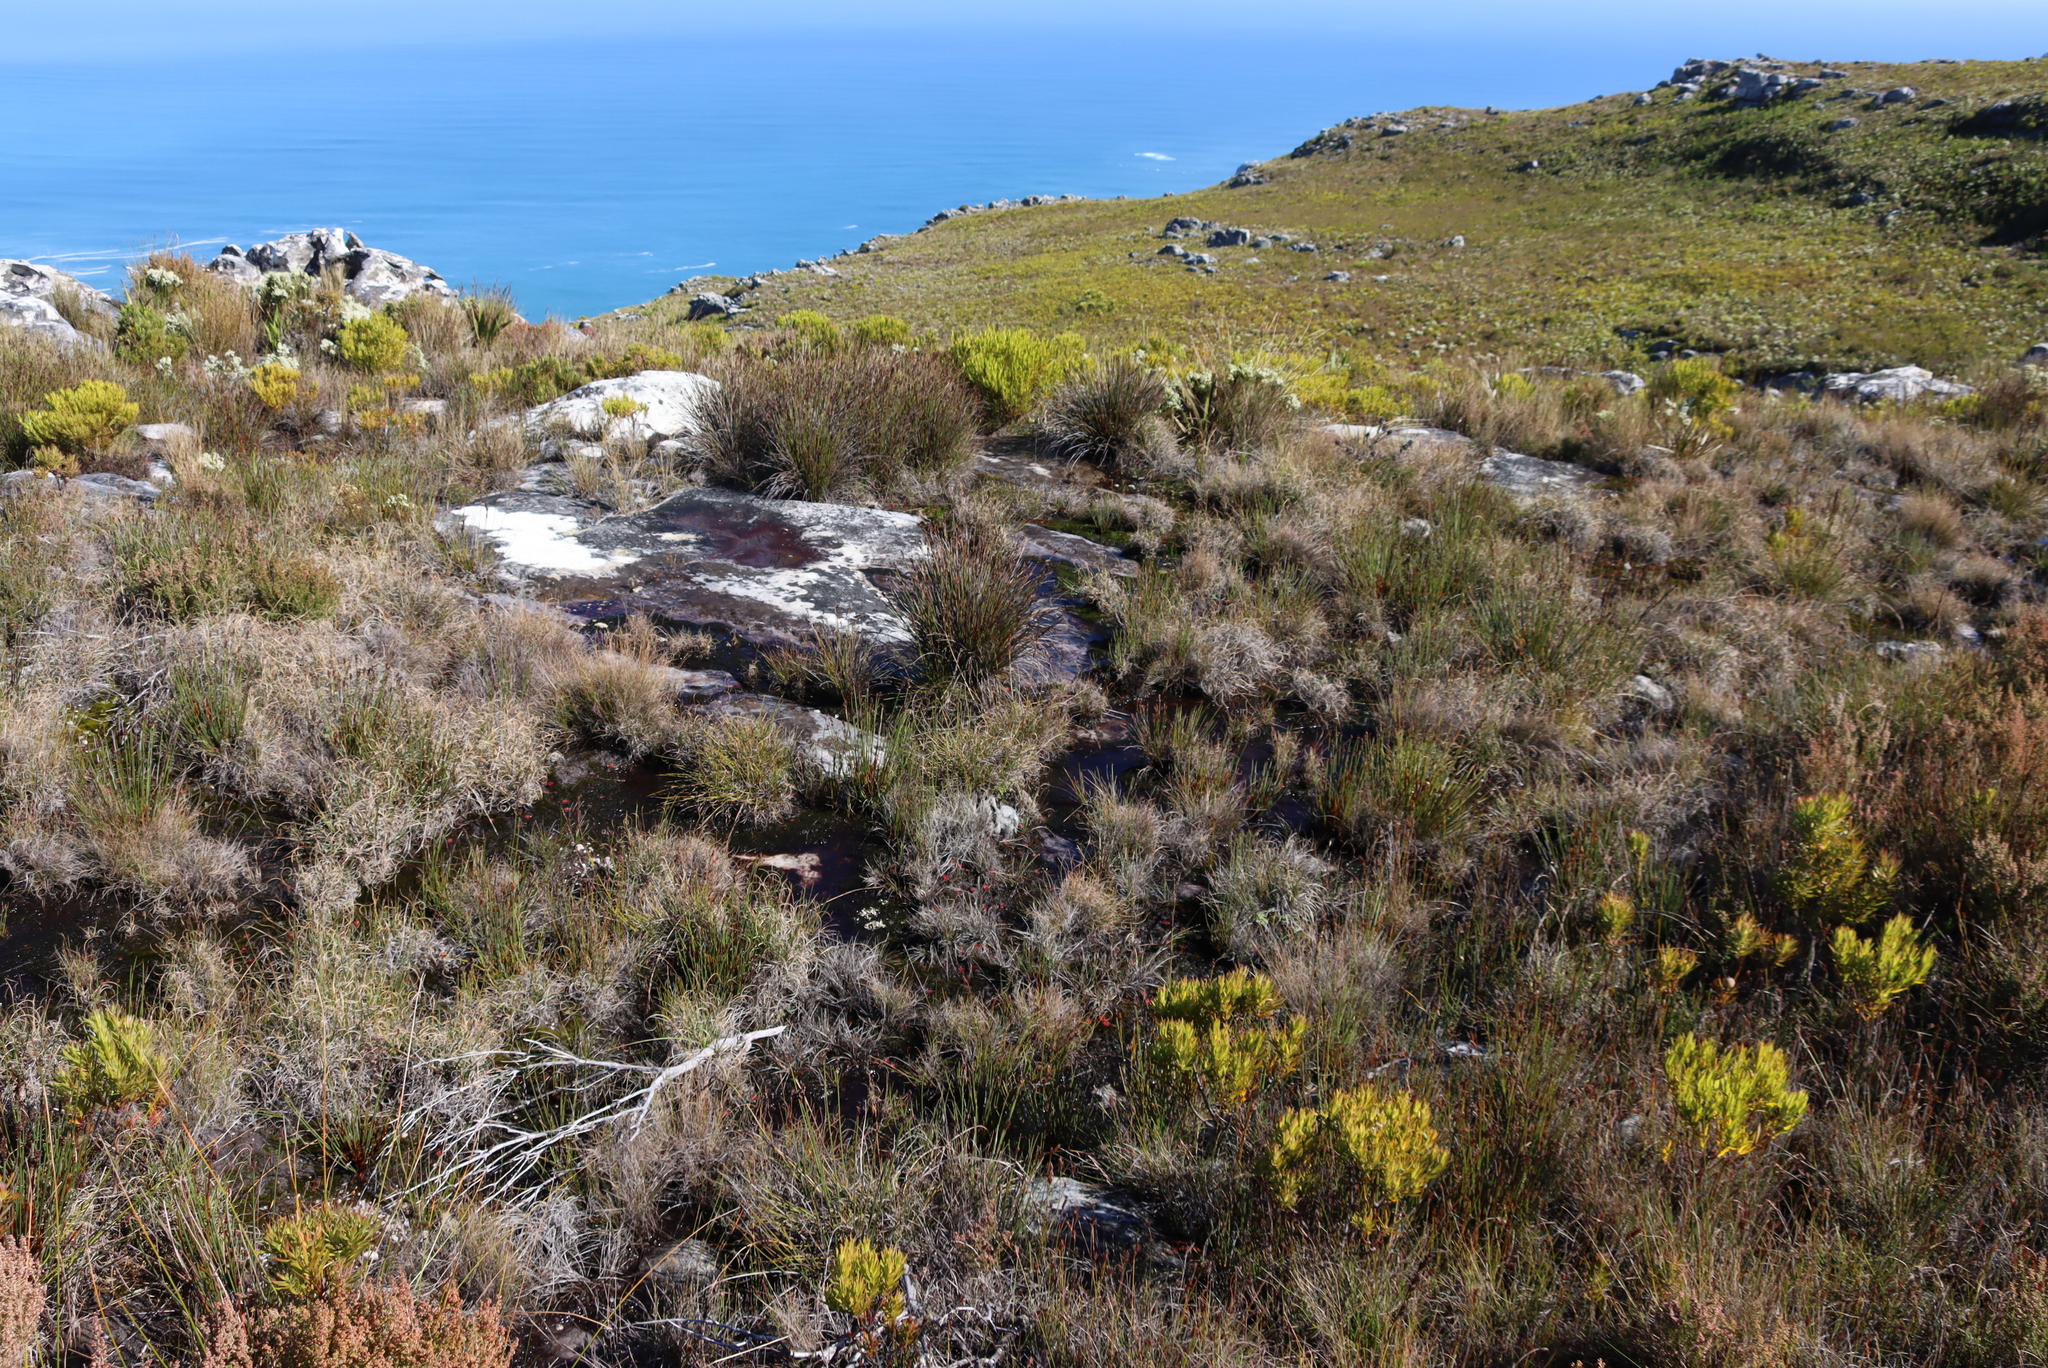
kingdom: Plantae
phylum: Tracheophyta
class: Liliopsida
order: Poales
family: Restionaceae
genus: Elegia
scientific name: Elegia ebracteata
